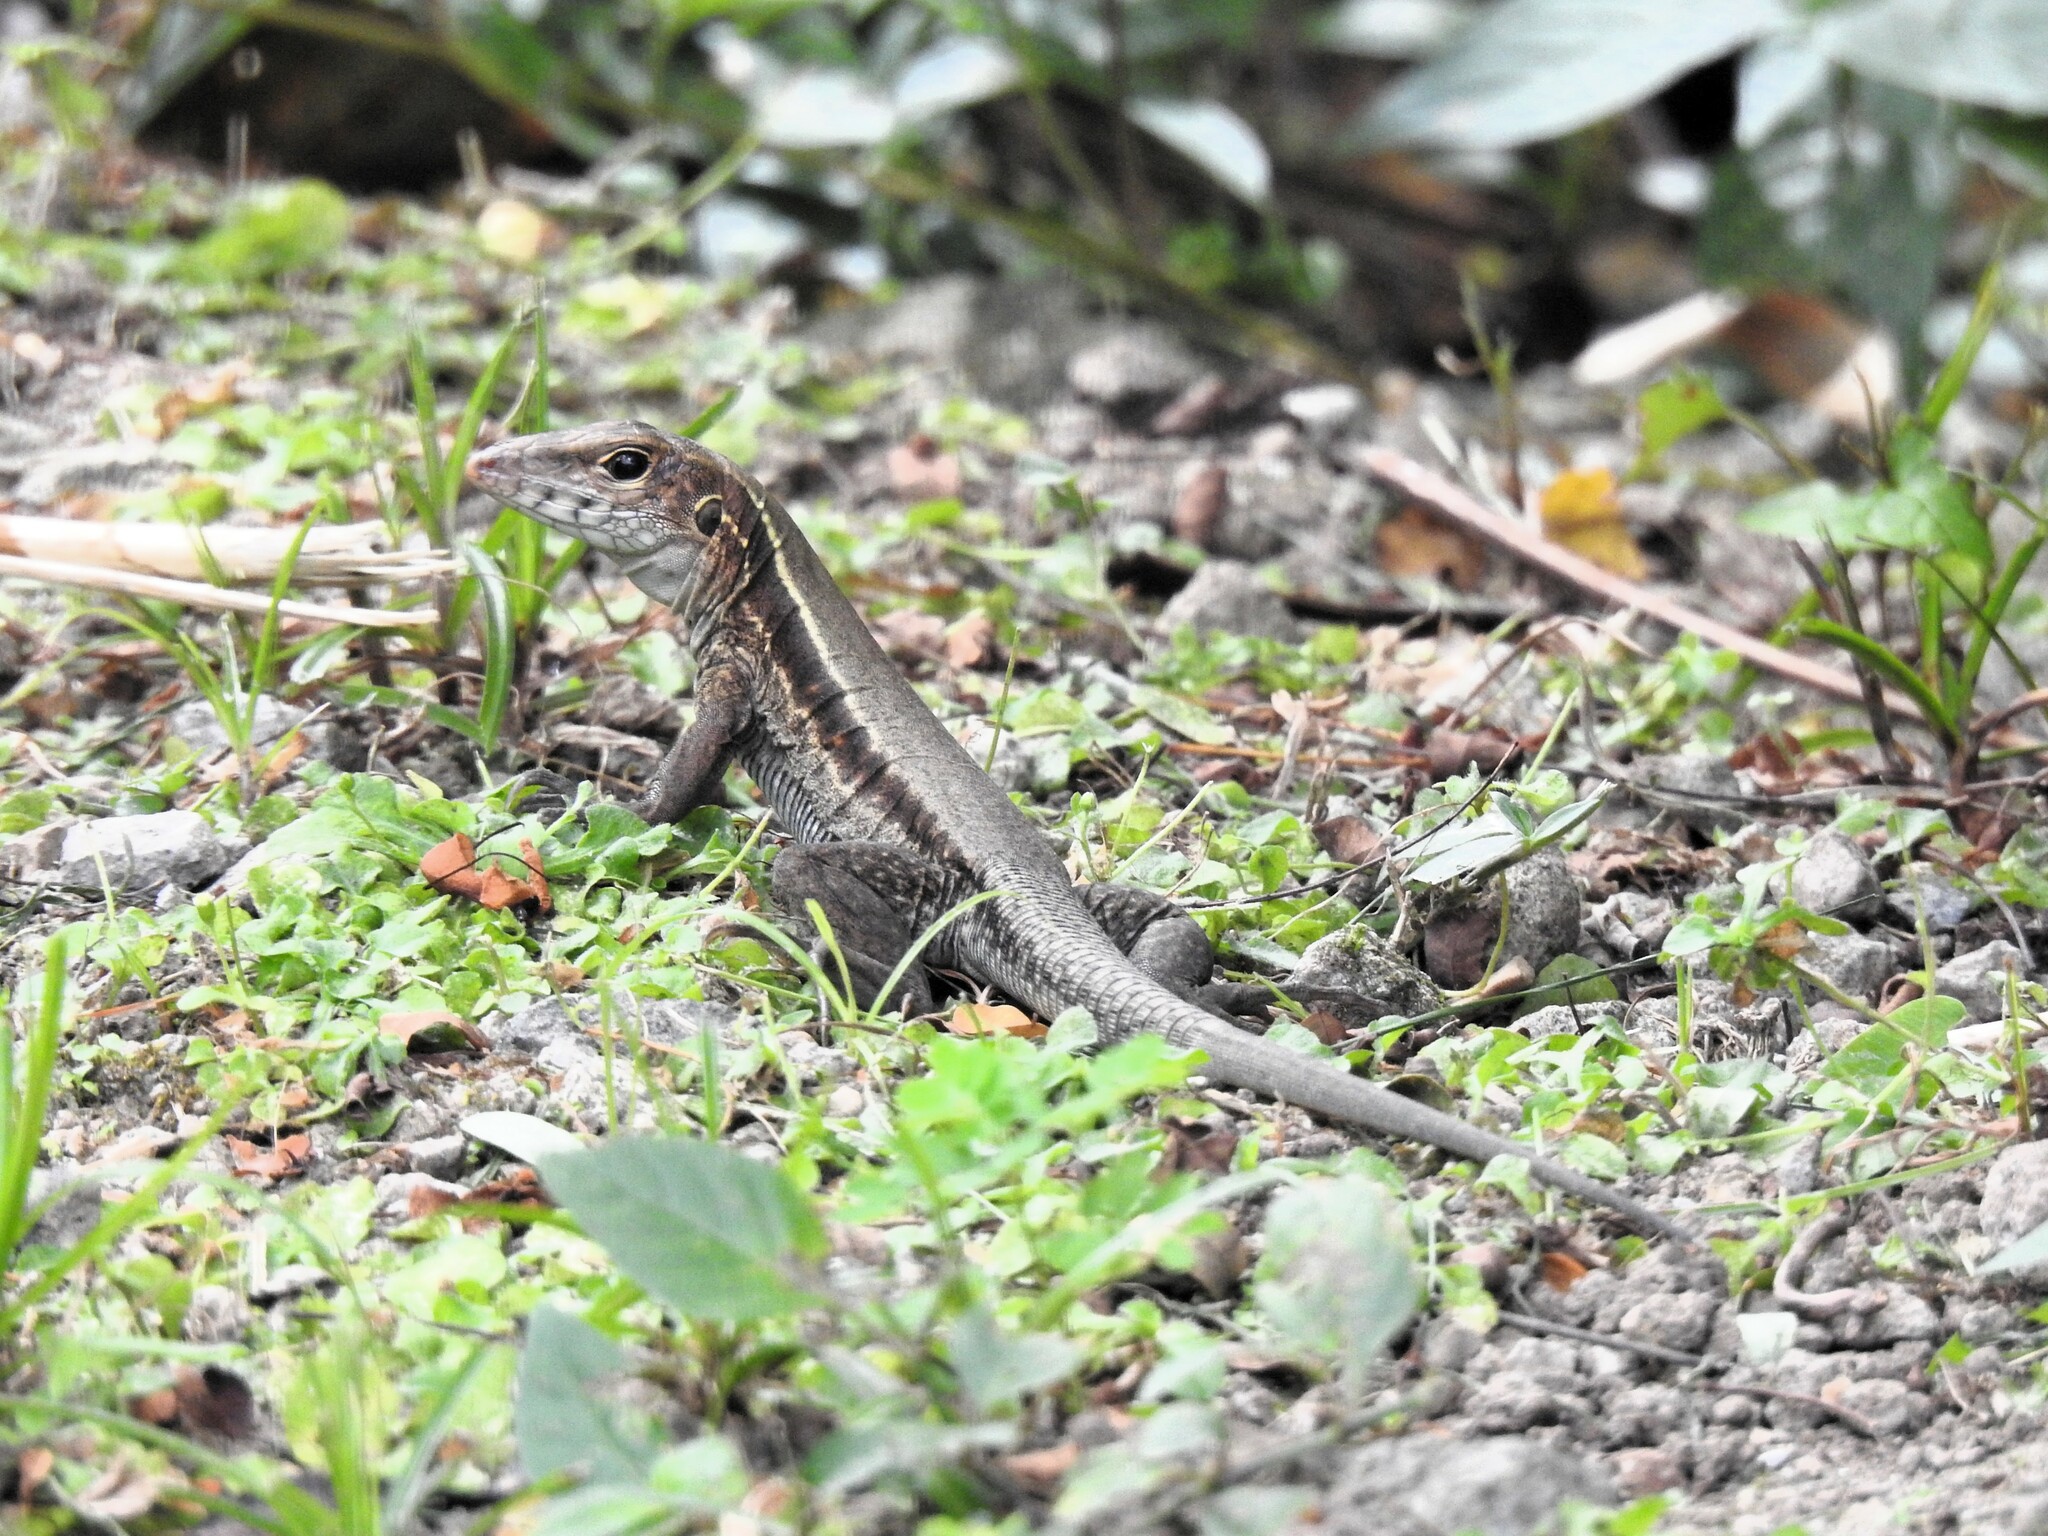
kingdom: Animalia
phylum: Chordata
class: Squamata
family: Teiidae
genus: Pholidoscelis
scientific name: Pholidoscelis fuscatus
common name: Dominican ameiva
